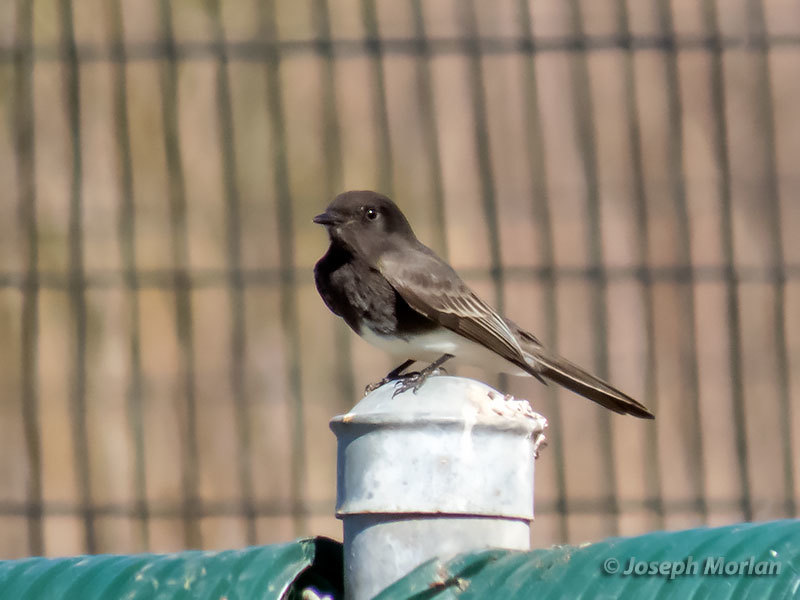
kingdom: Animalia
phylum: Chordata
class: Aves
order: Passeriformes
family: Tyrannidae
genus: Sayornis
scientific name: Sayornis nigricans
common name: Black phoebe
